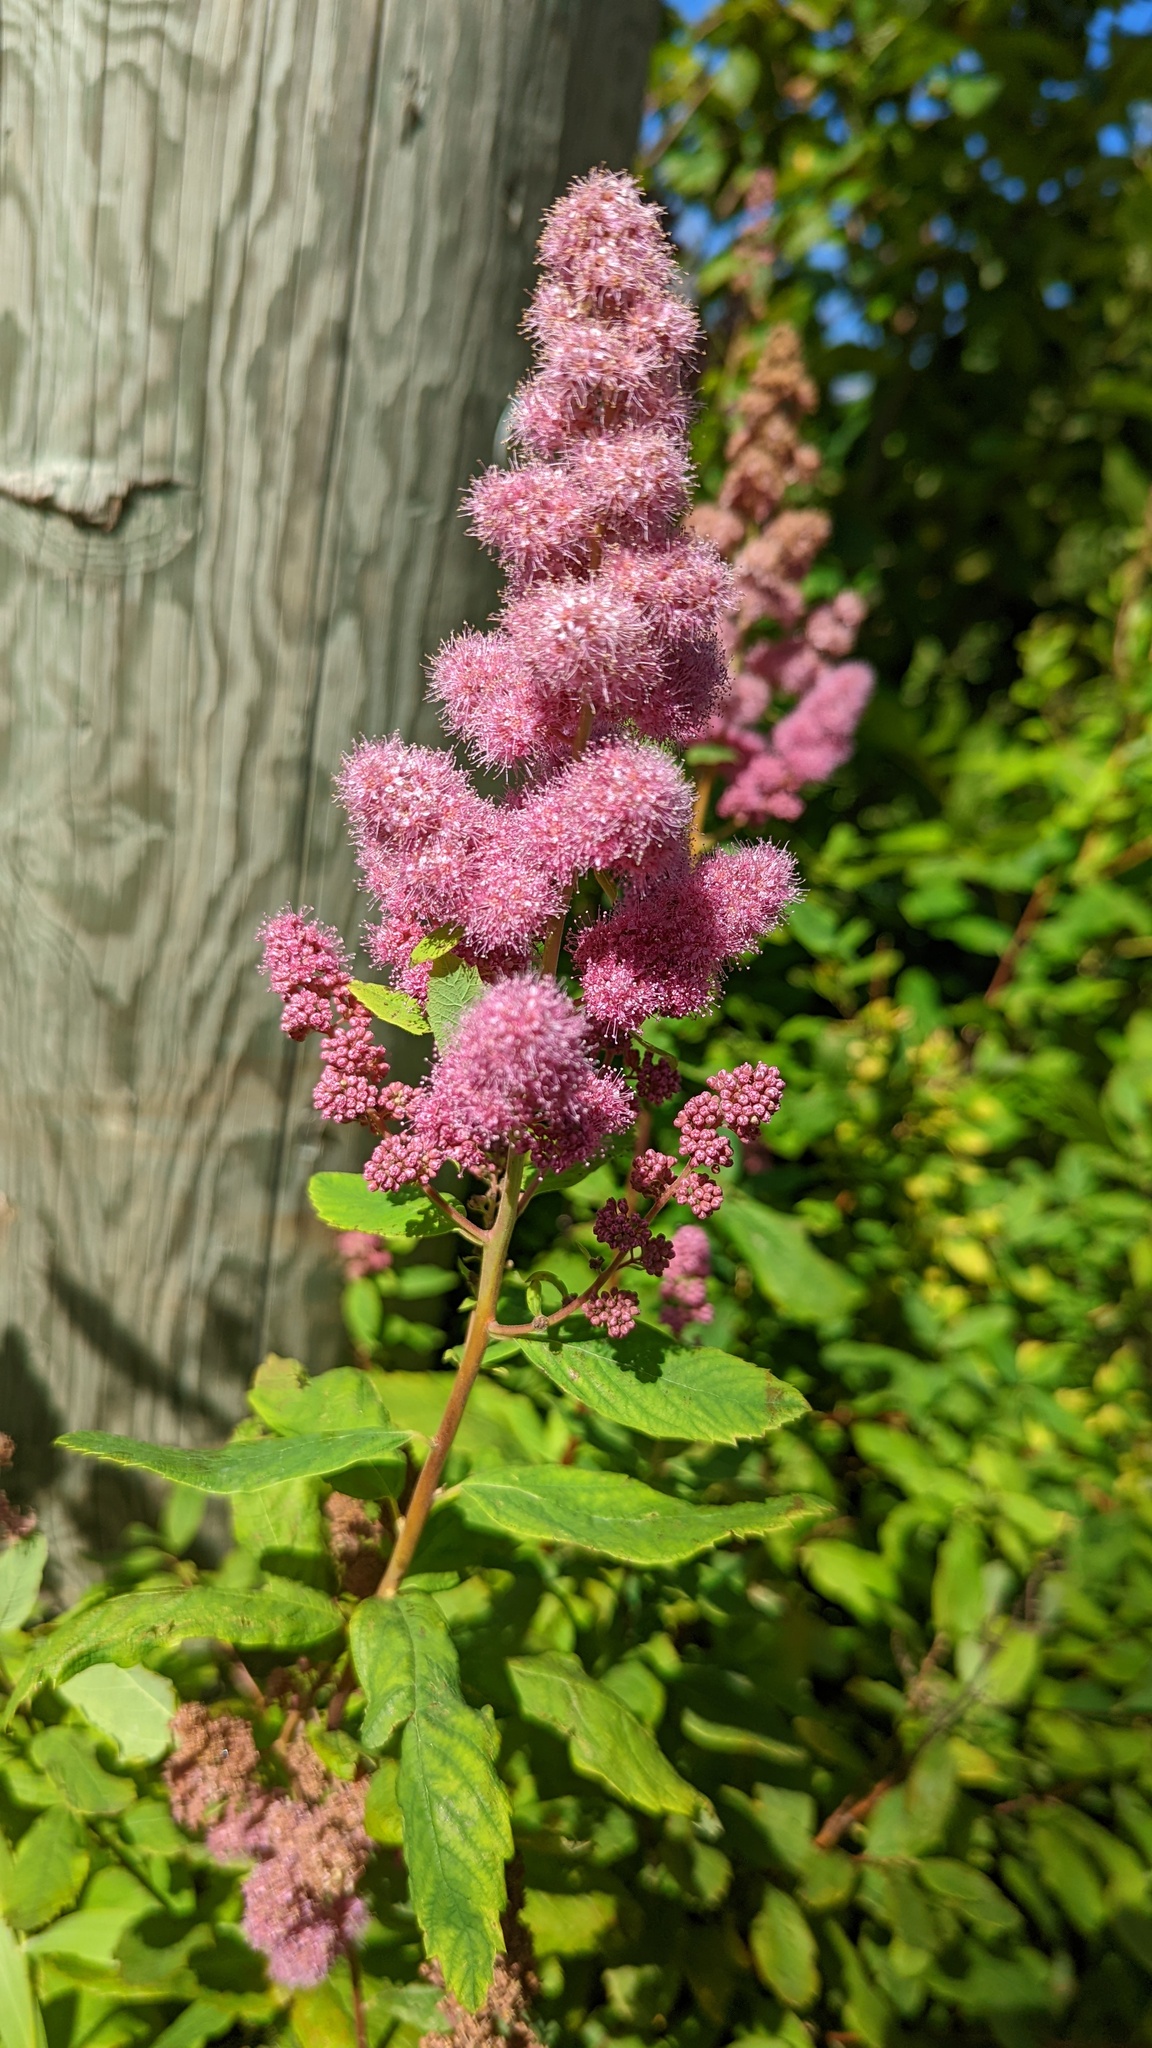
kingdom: Plantae
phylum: Tracheophyta
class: Magnoliopsida
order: Rosales
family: Rosaceae
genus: Spiraea
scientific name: Spiraea douglasii
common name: Steeplebush
